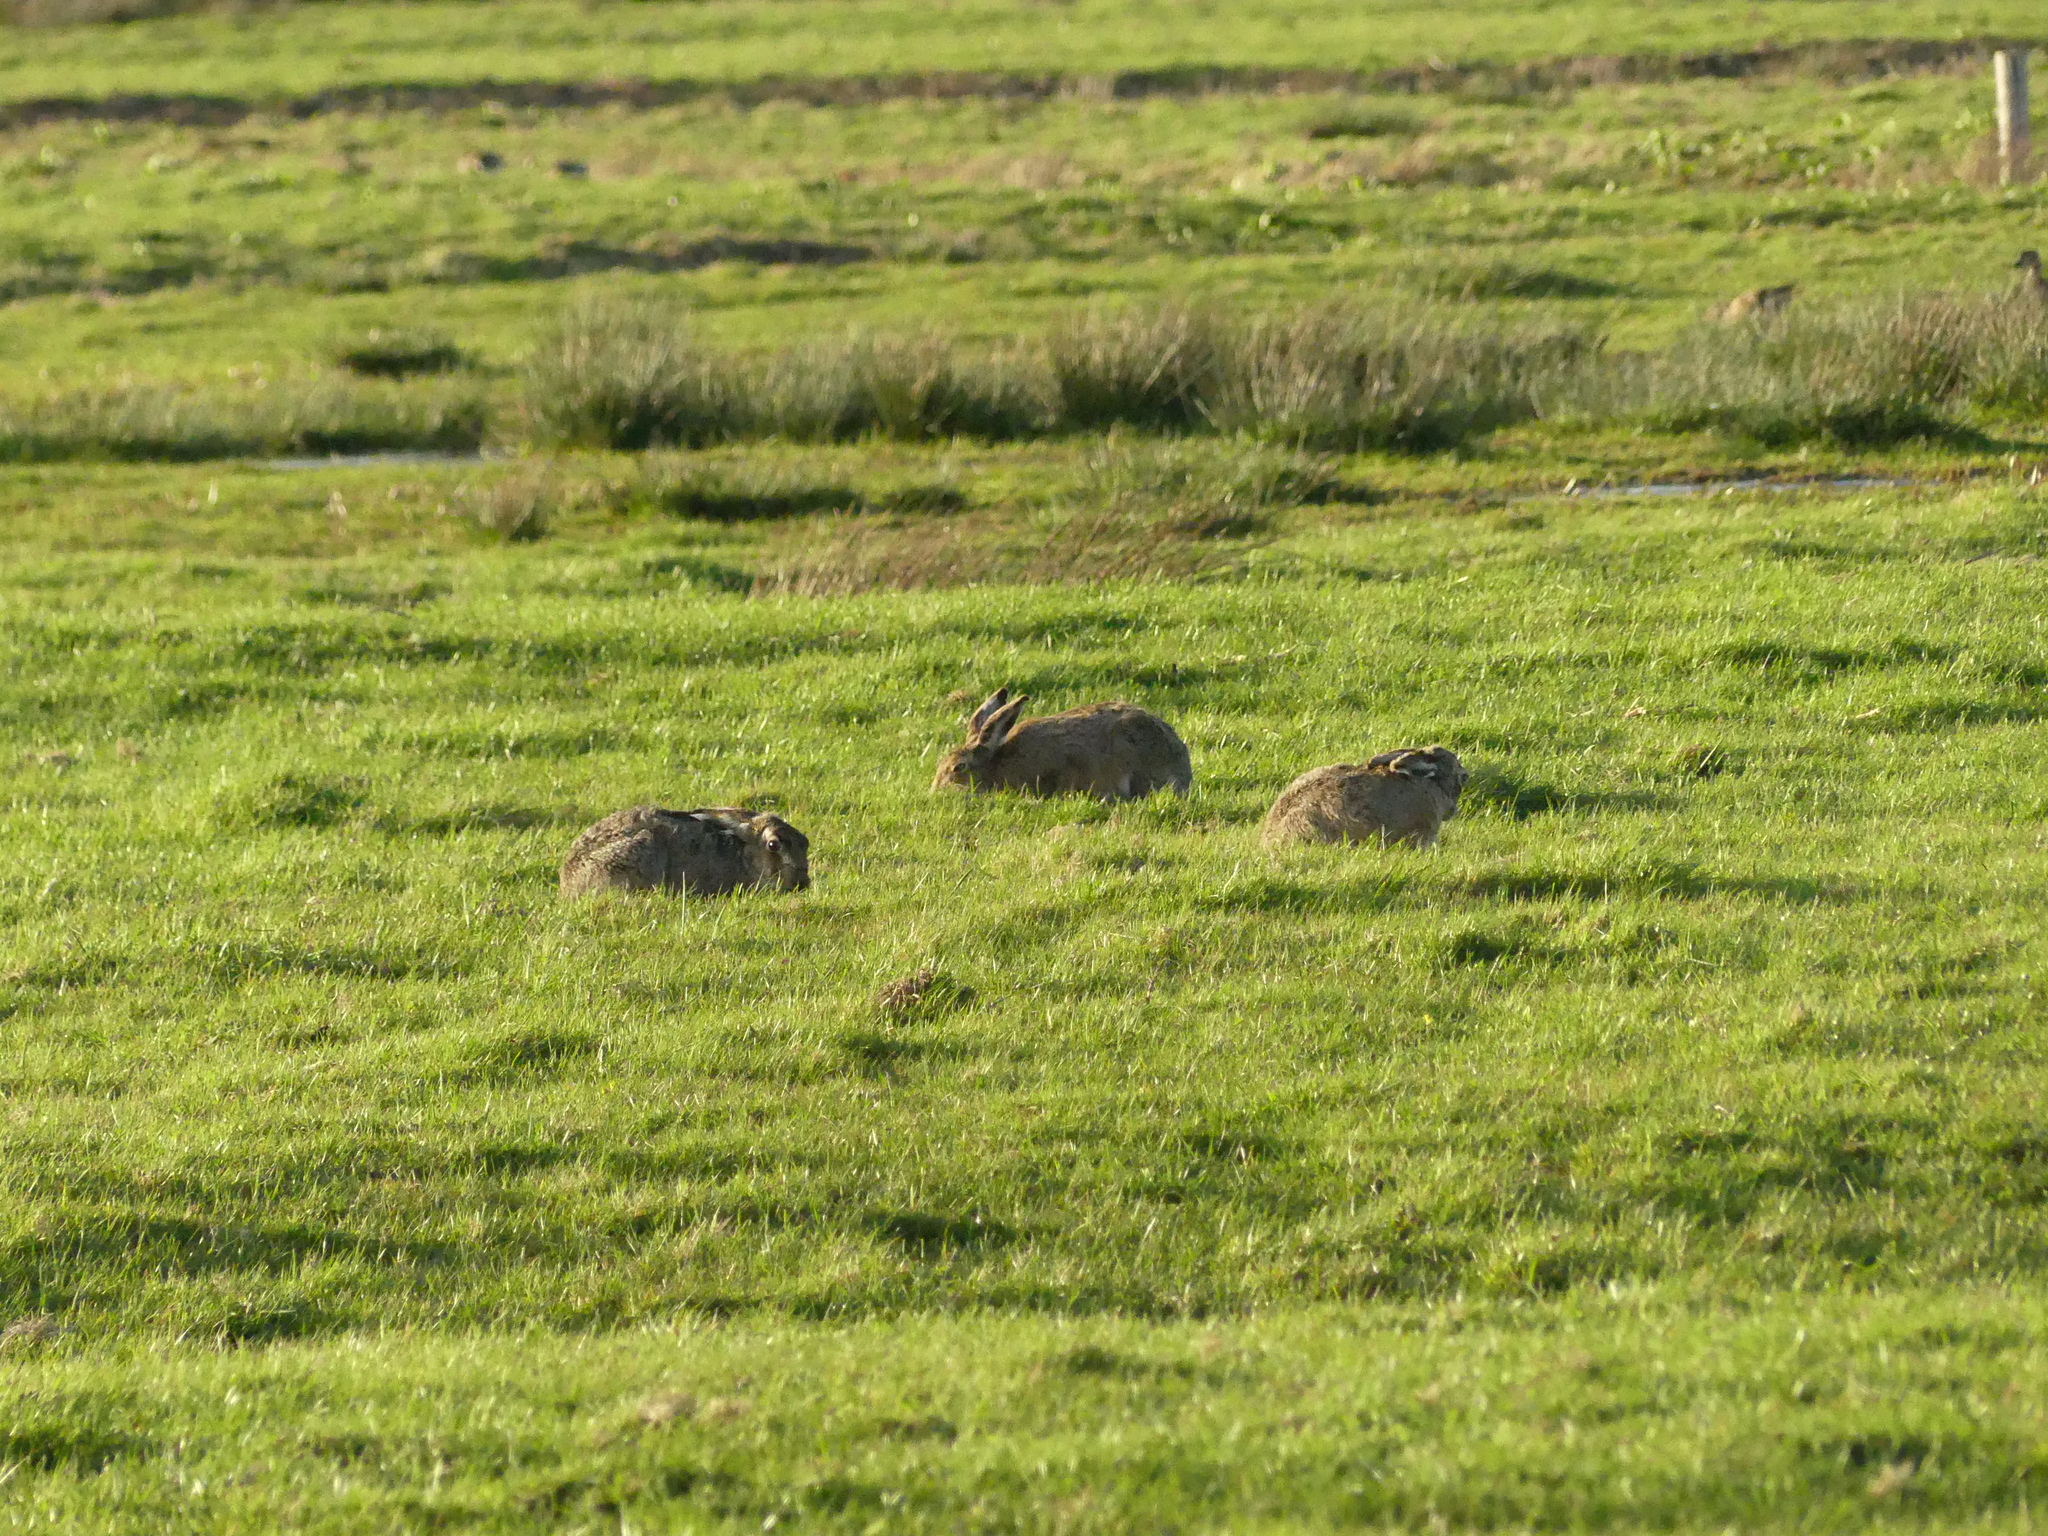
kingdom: Animalia
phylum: Chordata
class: Mammalia
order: Lagomorpha
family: Leporidae
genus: Lepus
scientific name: Lepus europaeus
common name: European hare
